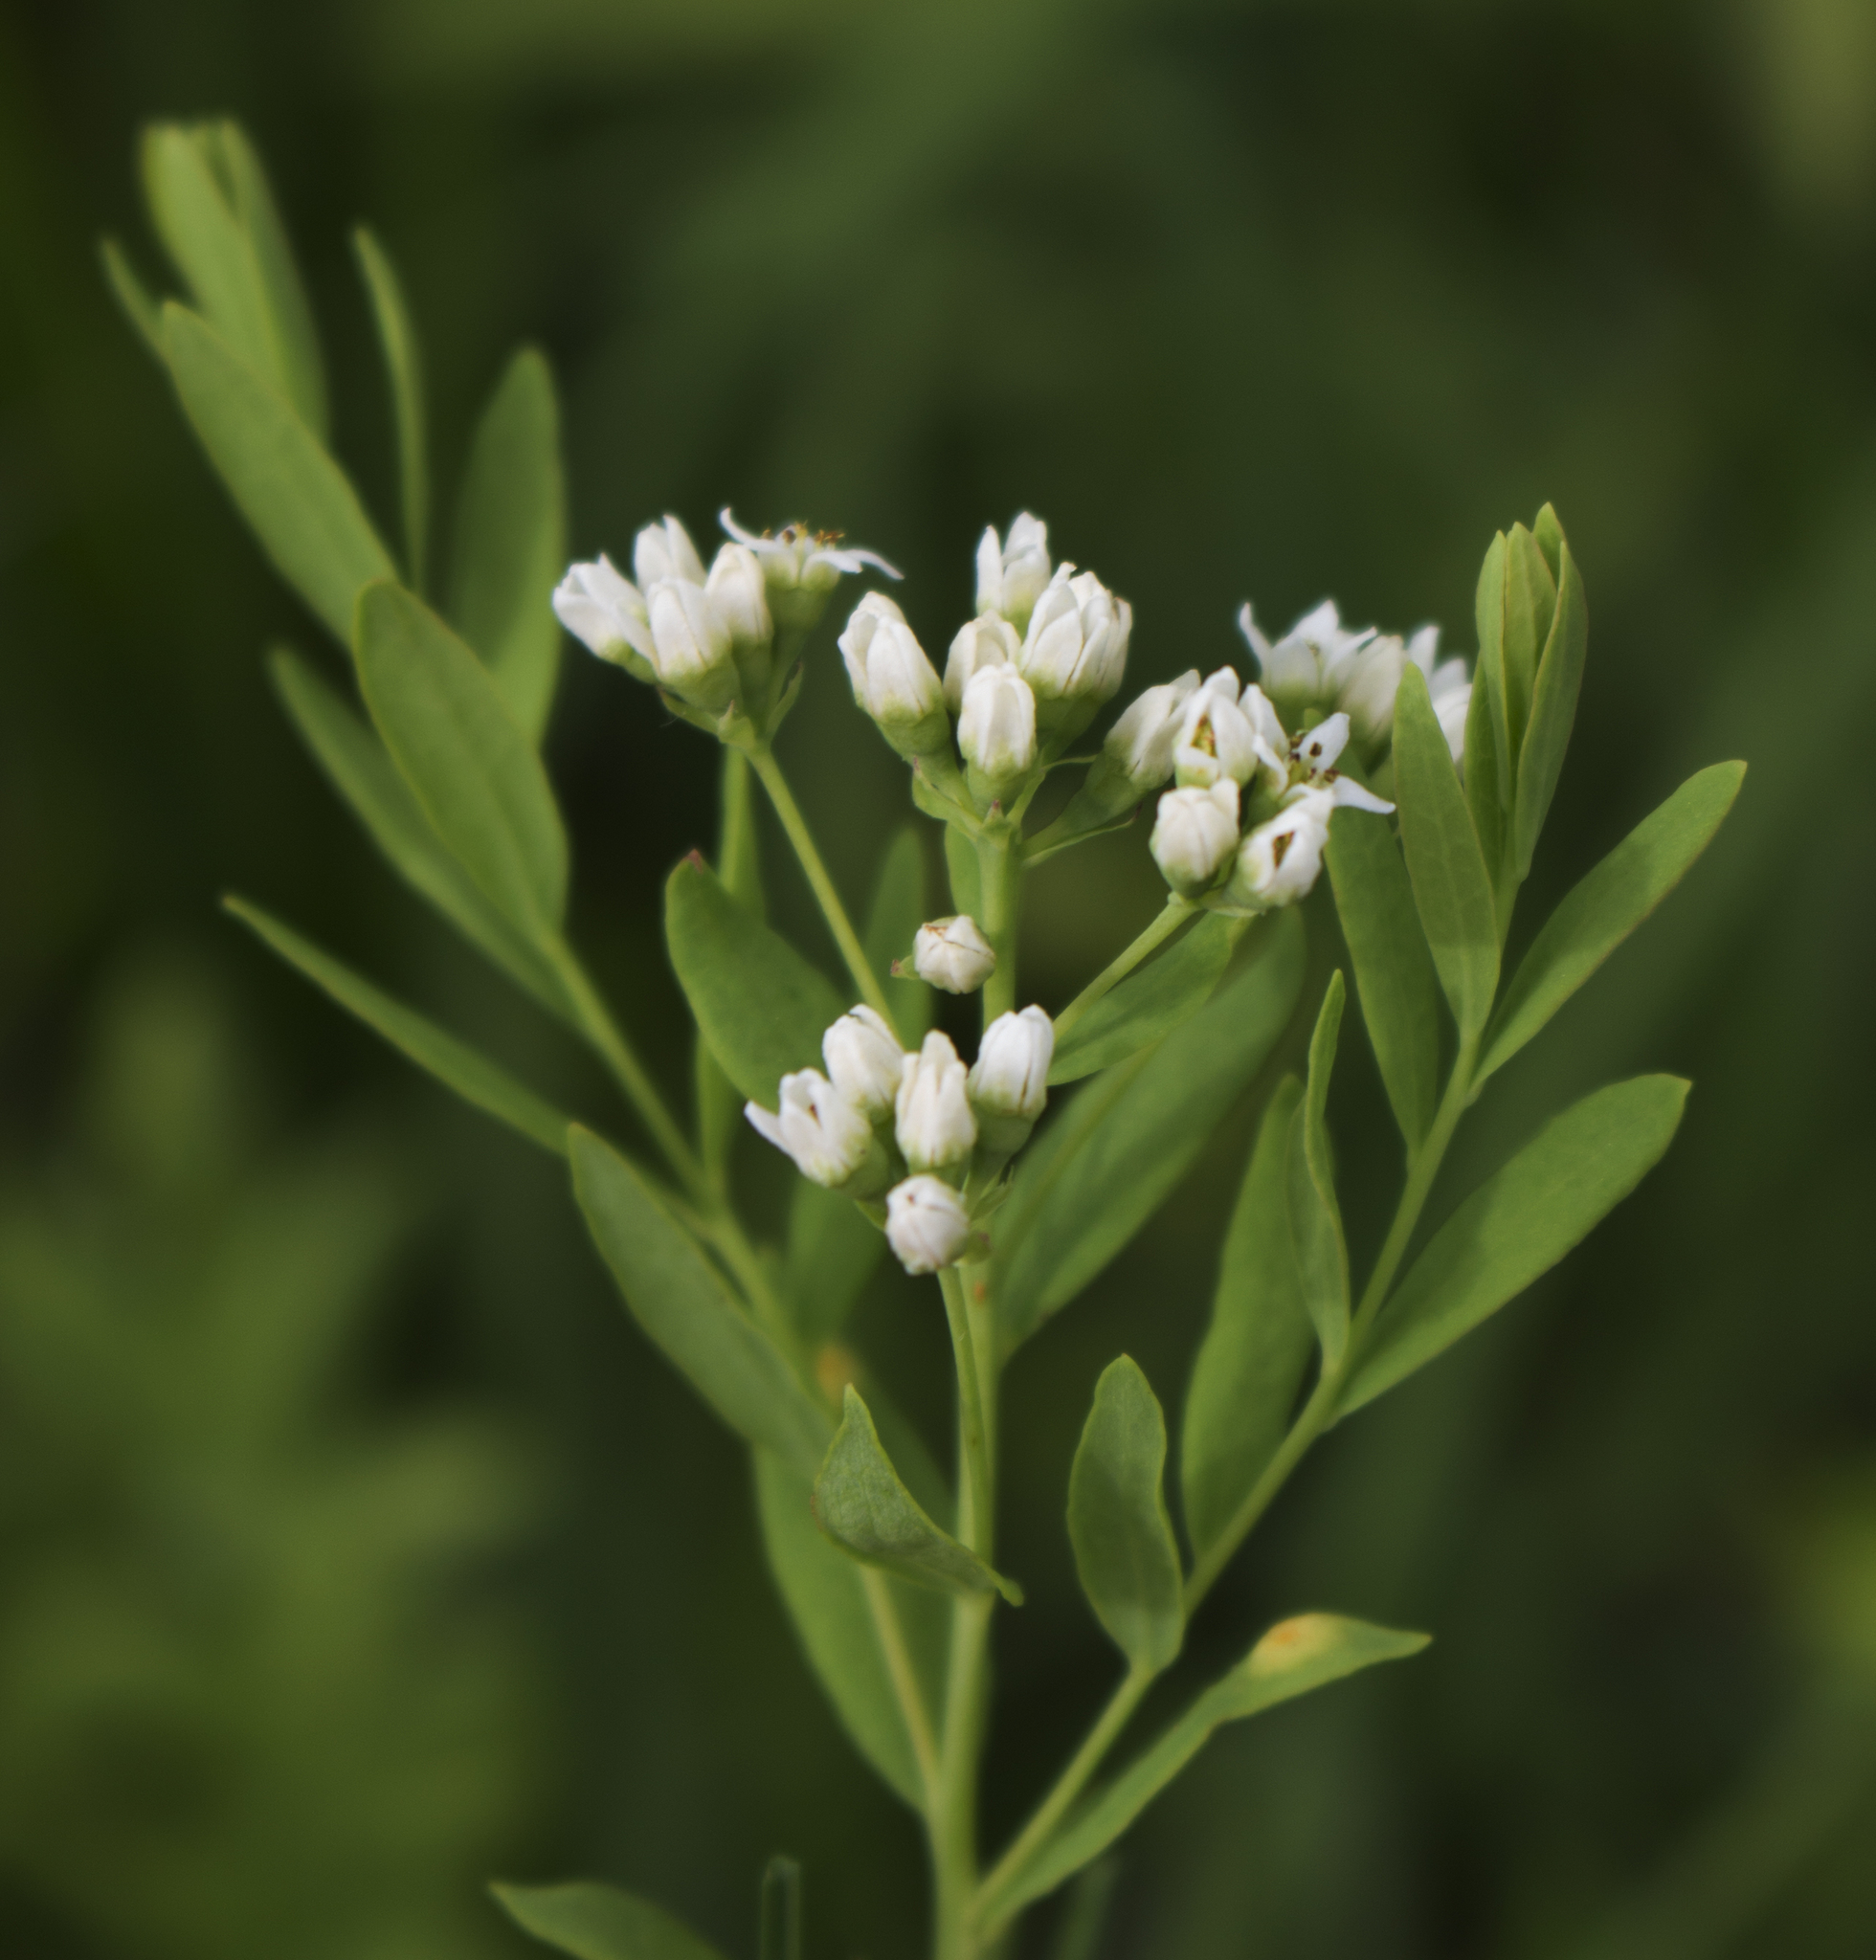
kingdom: Plantae
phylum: Tracheophyta
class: Magnoliopsida
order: Santalales
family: Comandraceae
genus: Comandra
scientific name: Comandra umbellata
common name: Bastard toadflax
